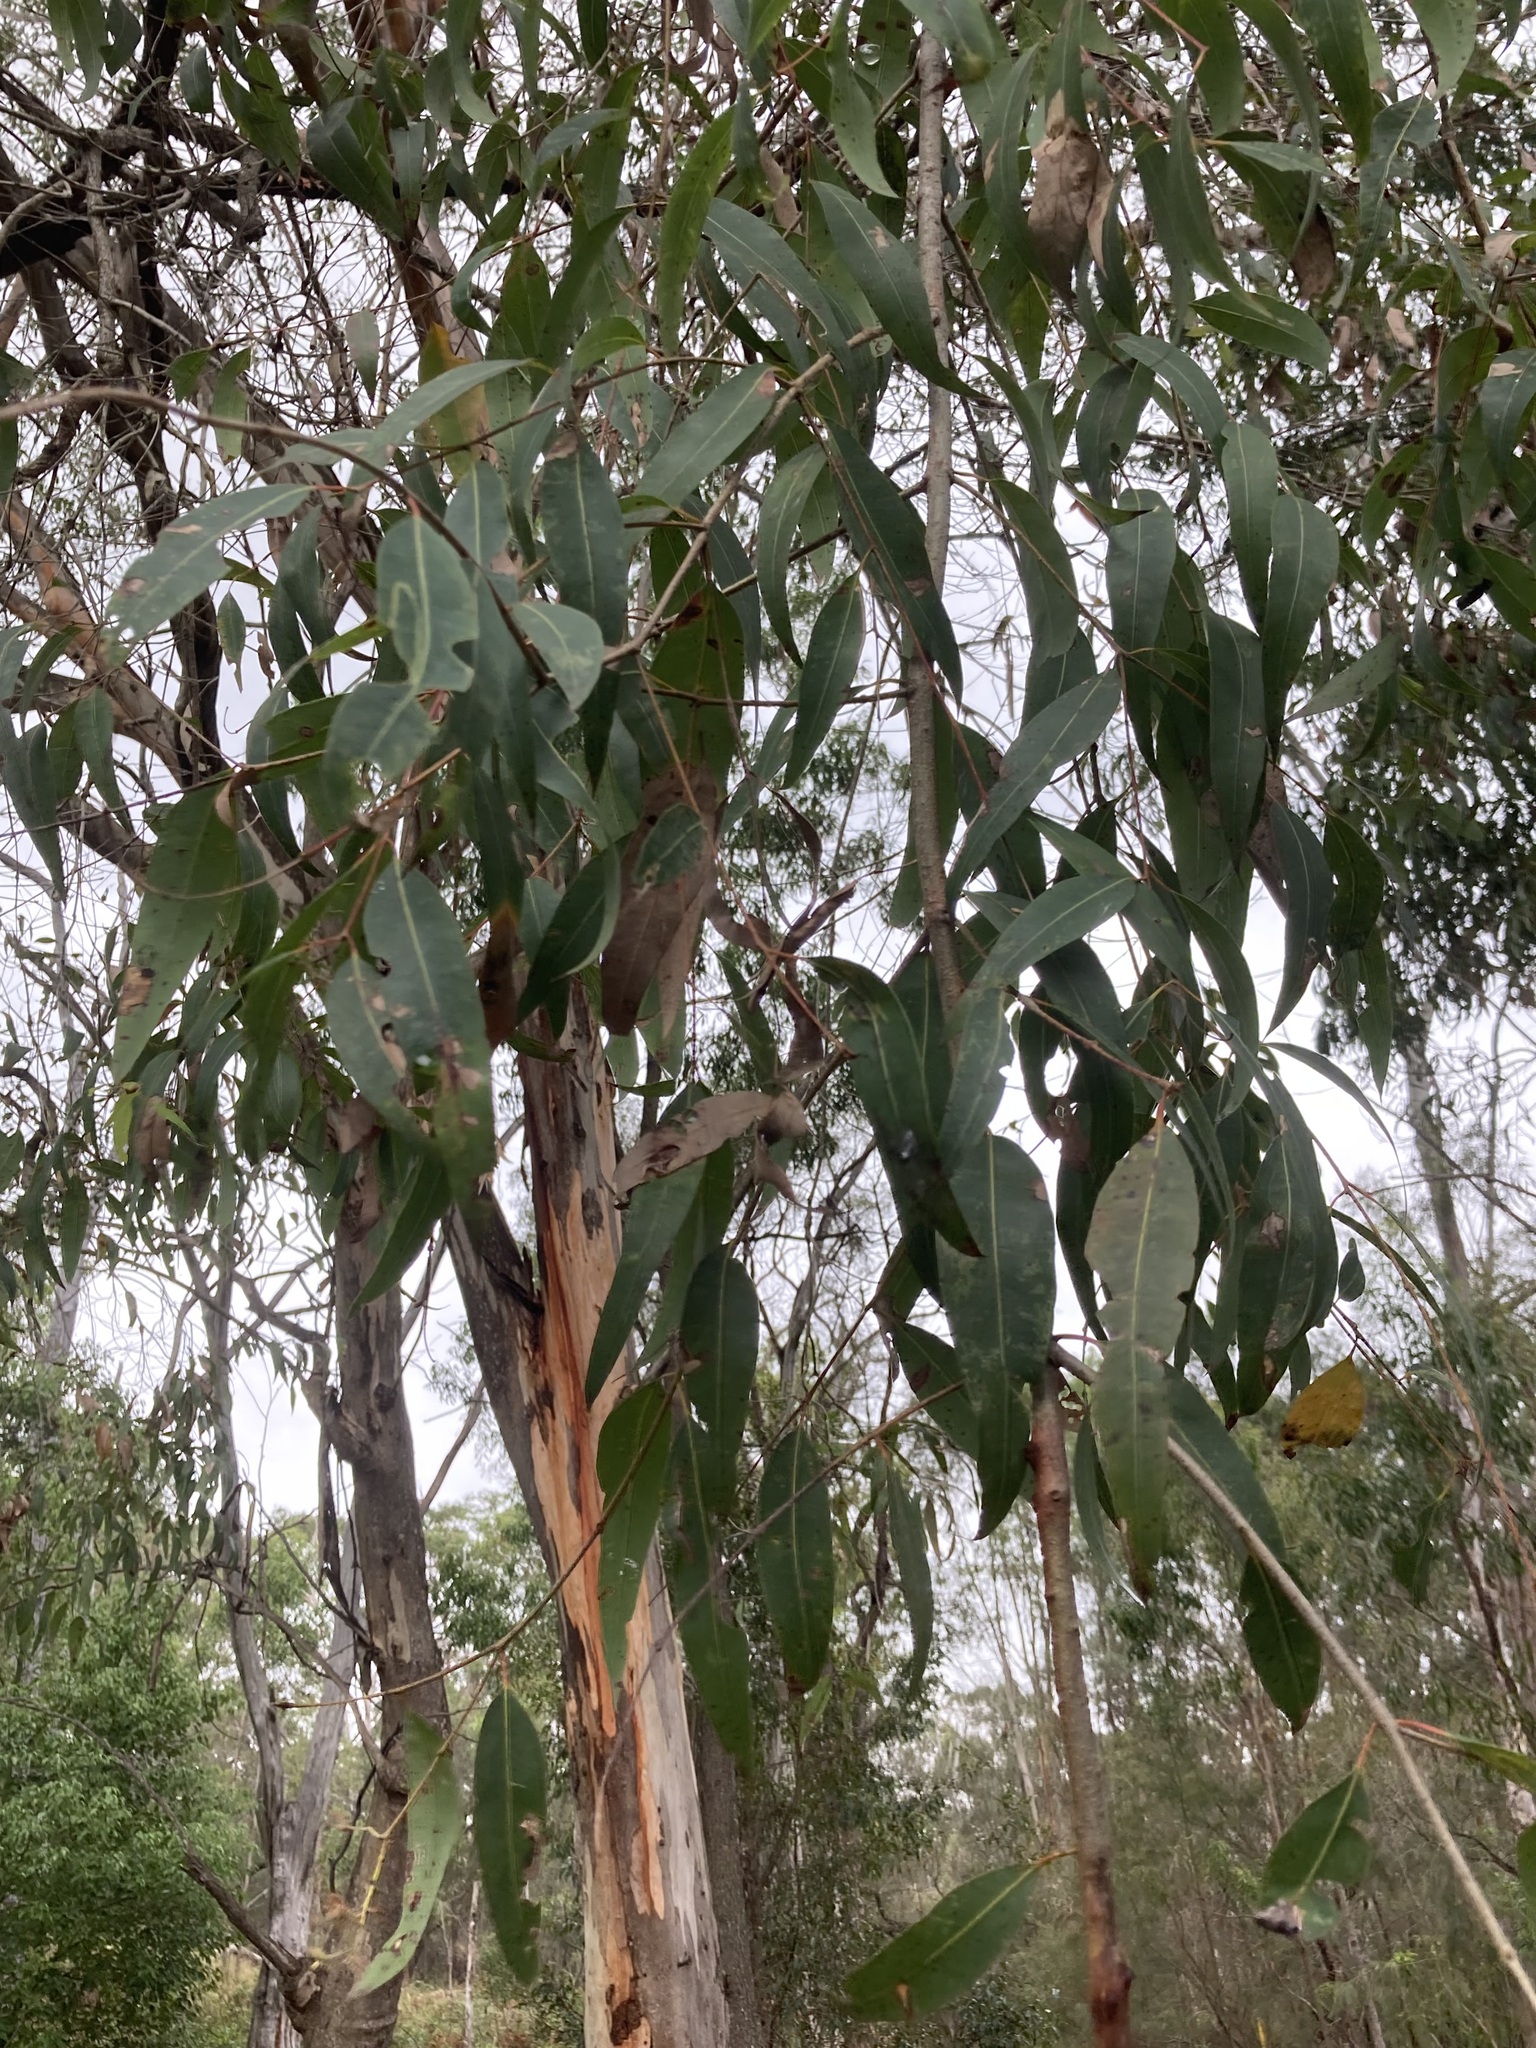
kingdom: Plantae
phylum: Tracheophyta
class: Magnoliopsida
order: Myrtales
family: Myrtaceae
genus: Angophora
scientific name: Angophora floribunda
